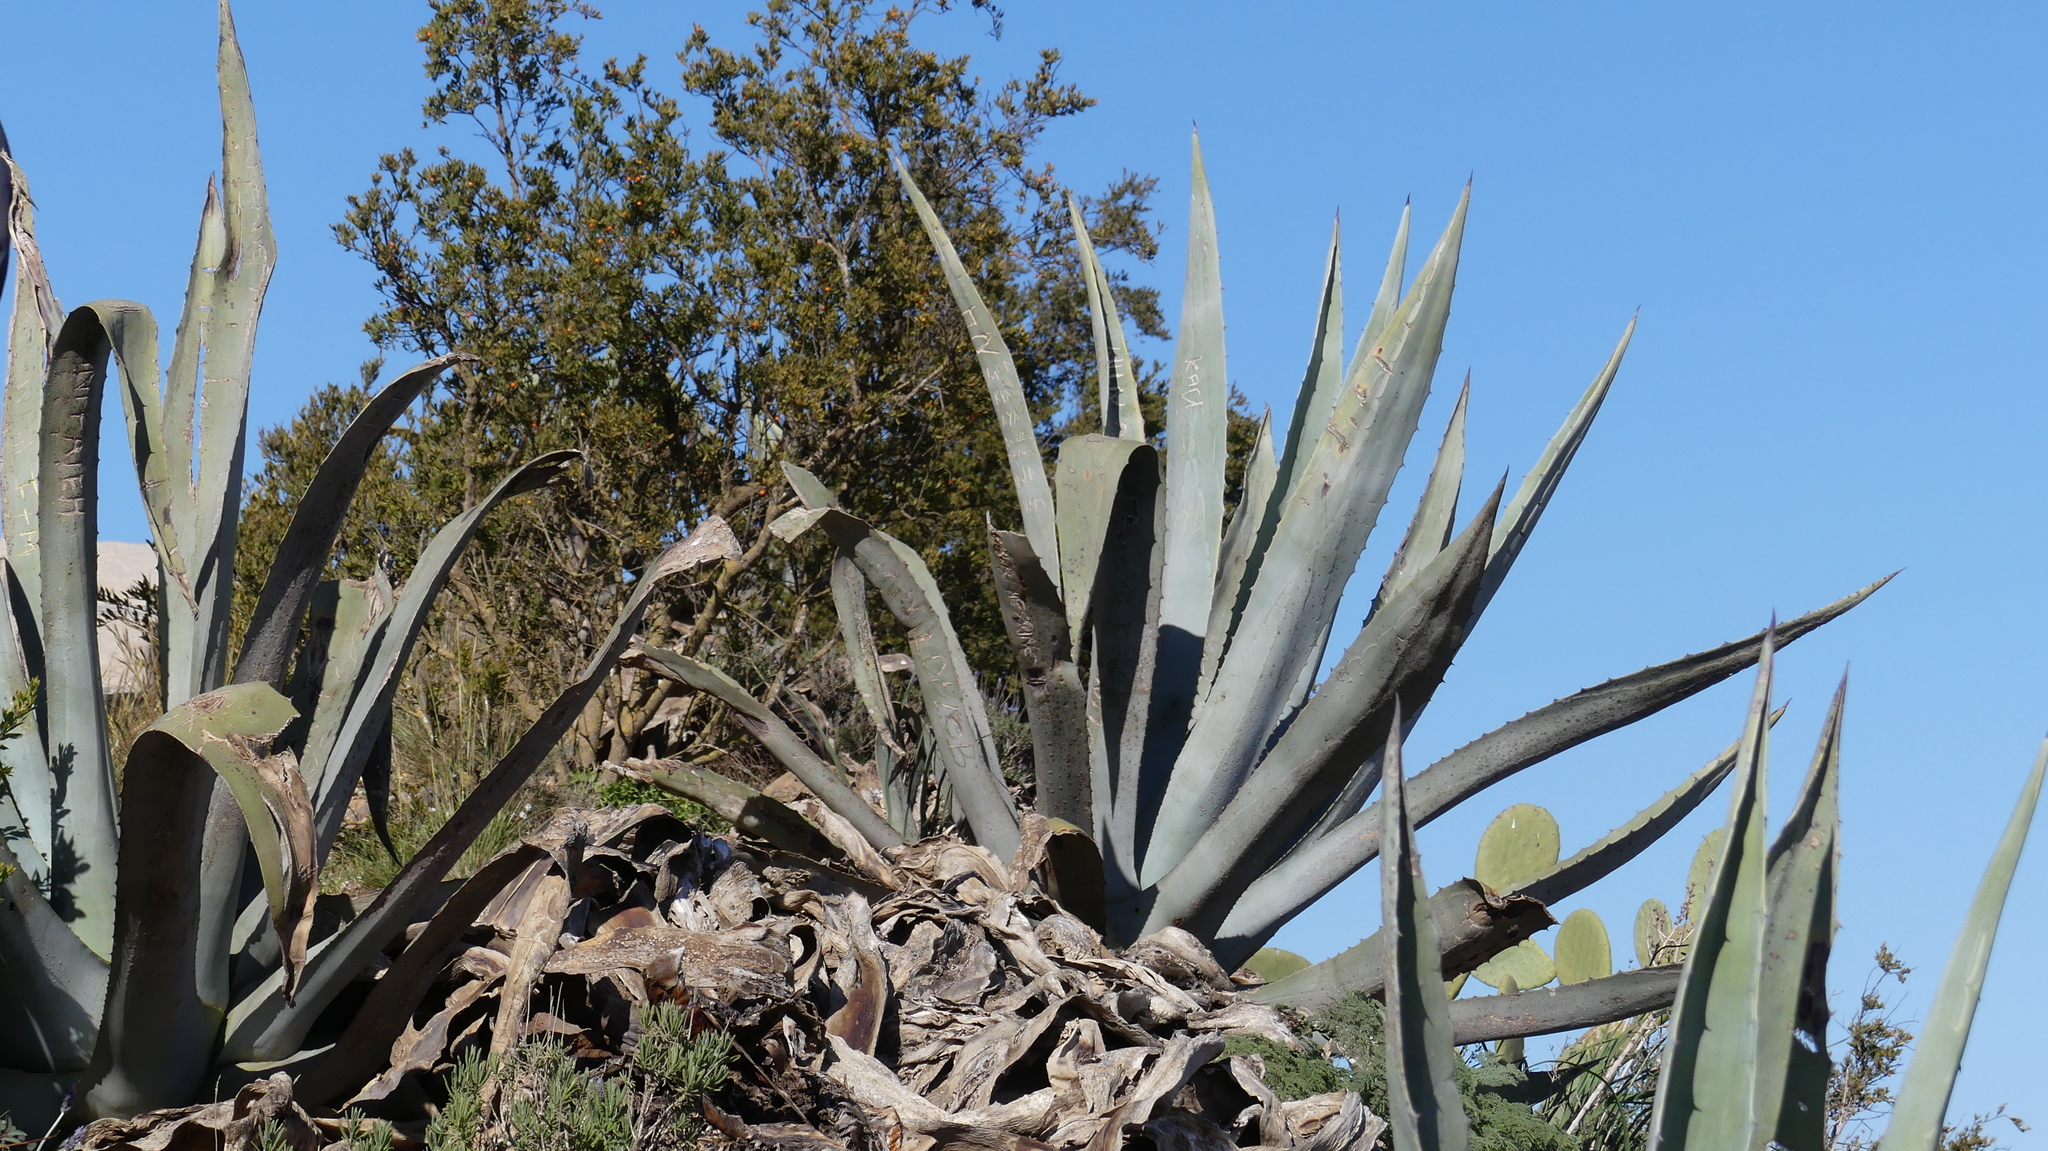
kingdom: Plantae
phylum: Tracheophyta
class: Liliopsida
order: Asparagales
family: Asparagaceae
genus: Agave
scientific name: Agave americana
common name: Centuryplant
